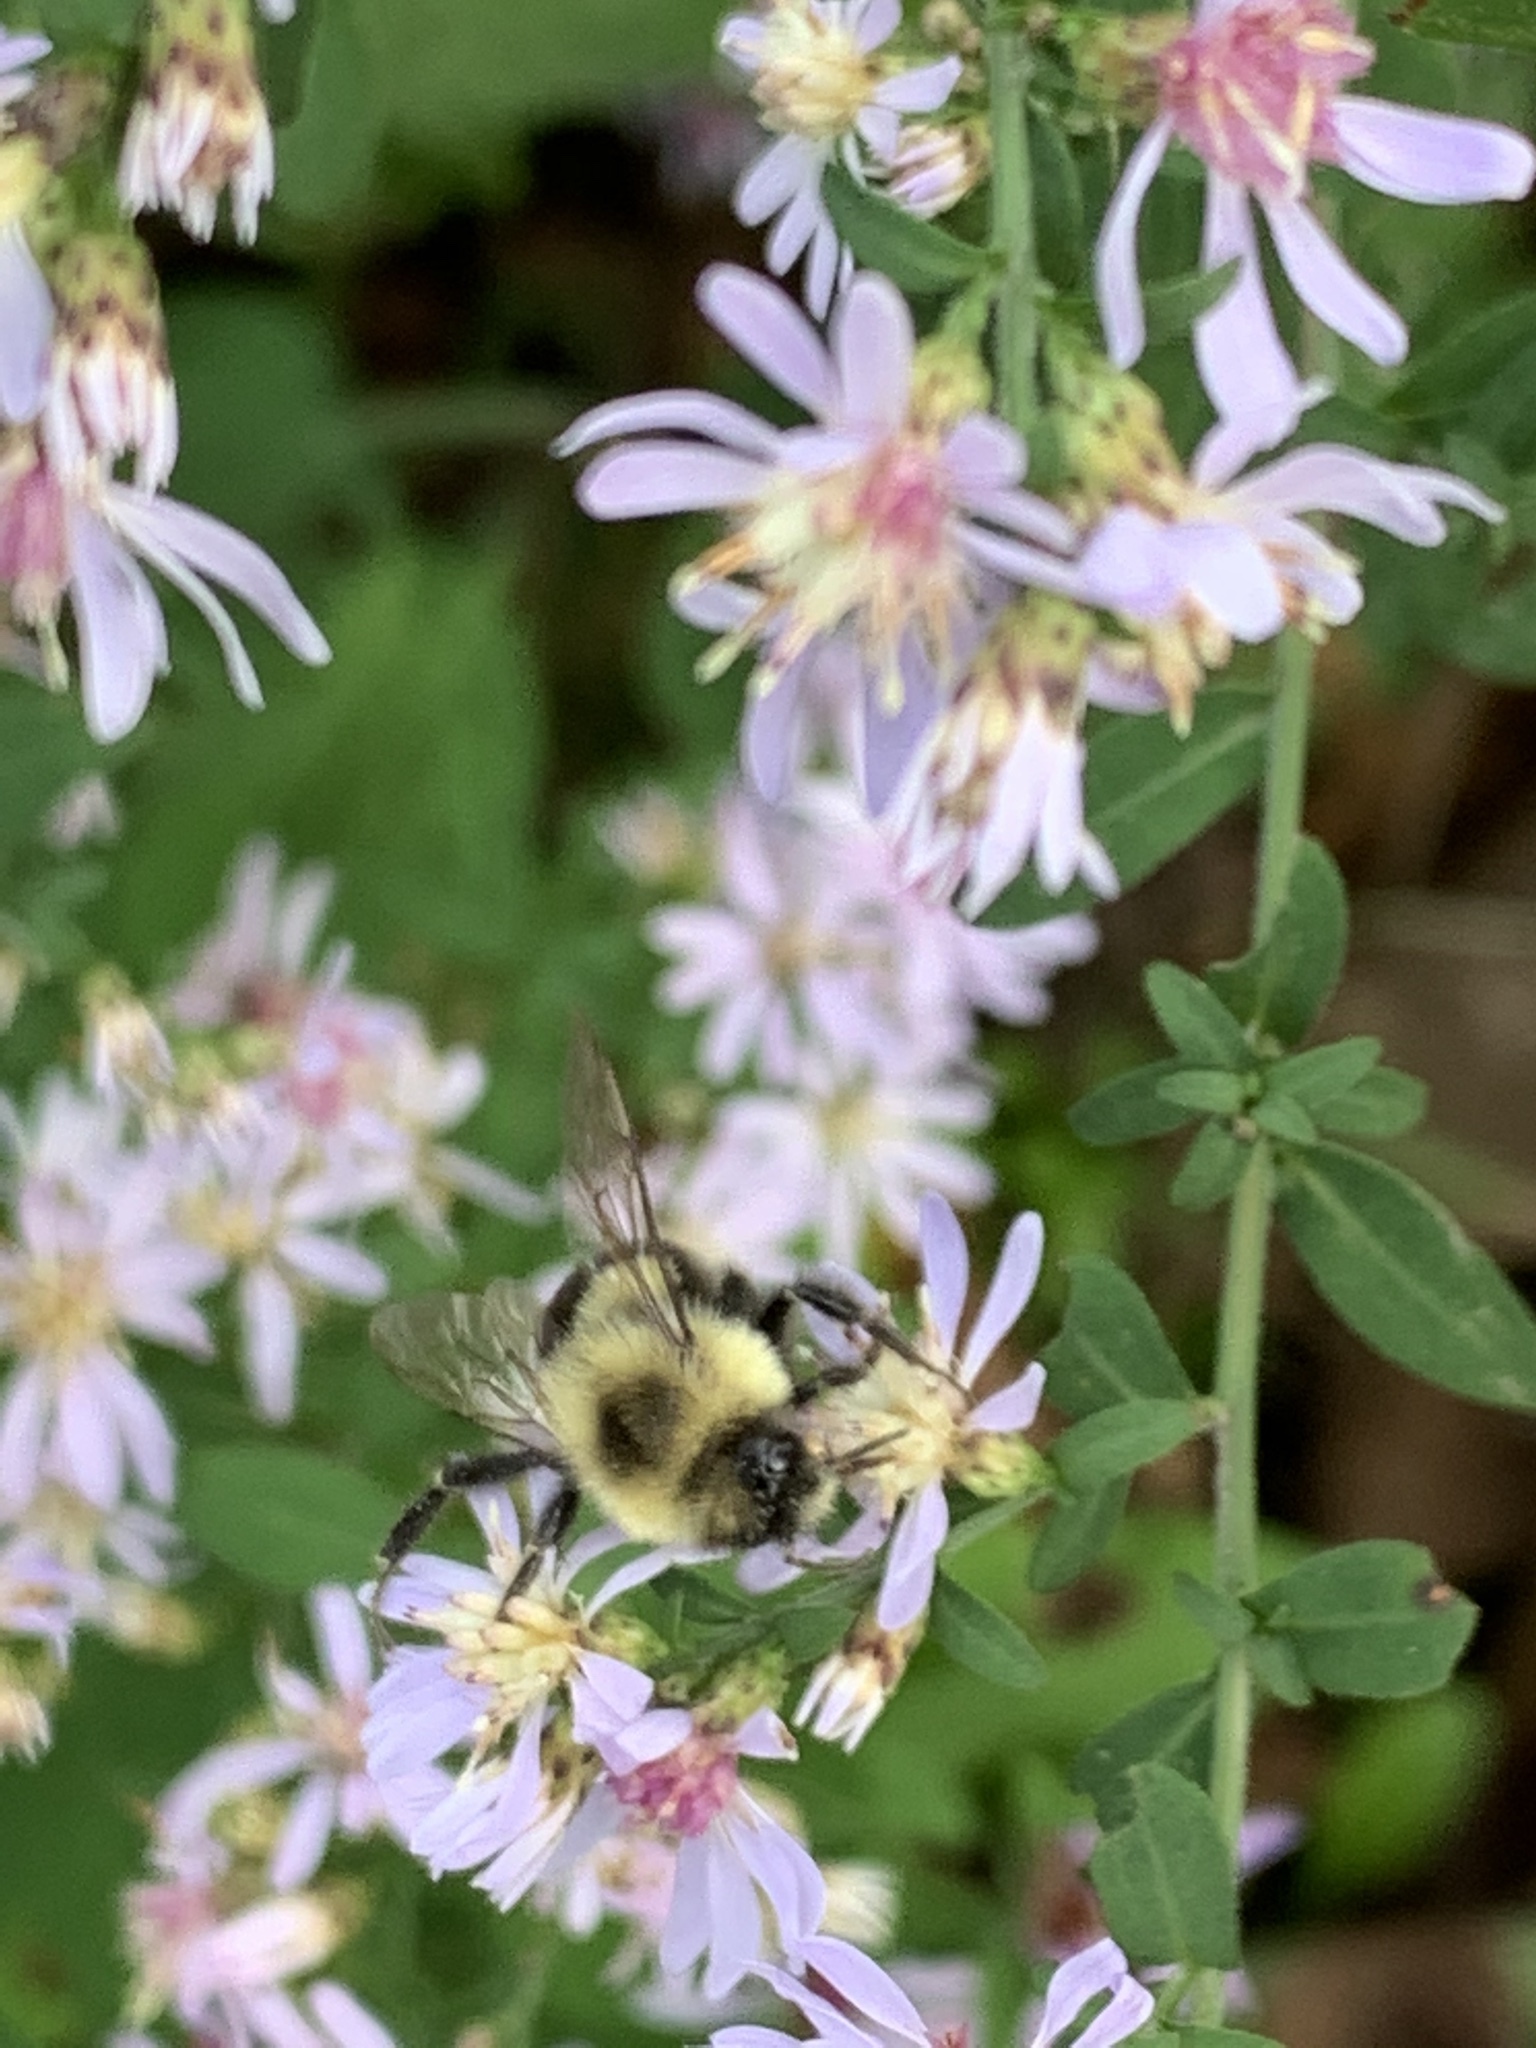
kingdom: Animalia
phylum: Arthropoda
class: Insecta
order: Hymenoptera
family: Apidae
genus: Bombus
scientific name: Bombus impatiens
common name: Common eastern bumble bee
